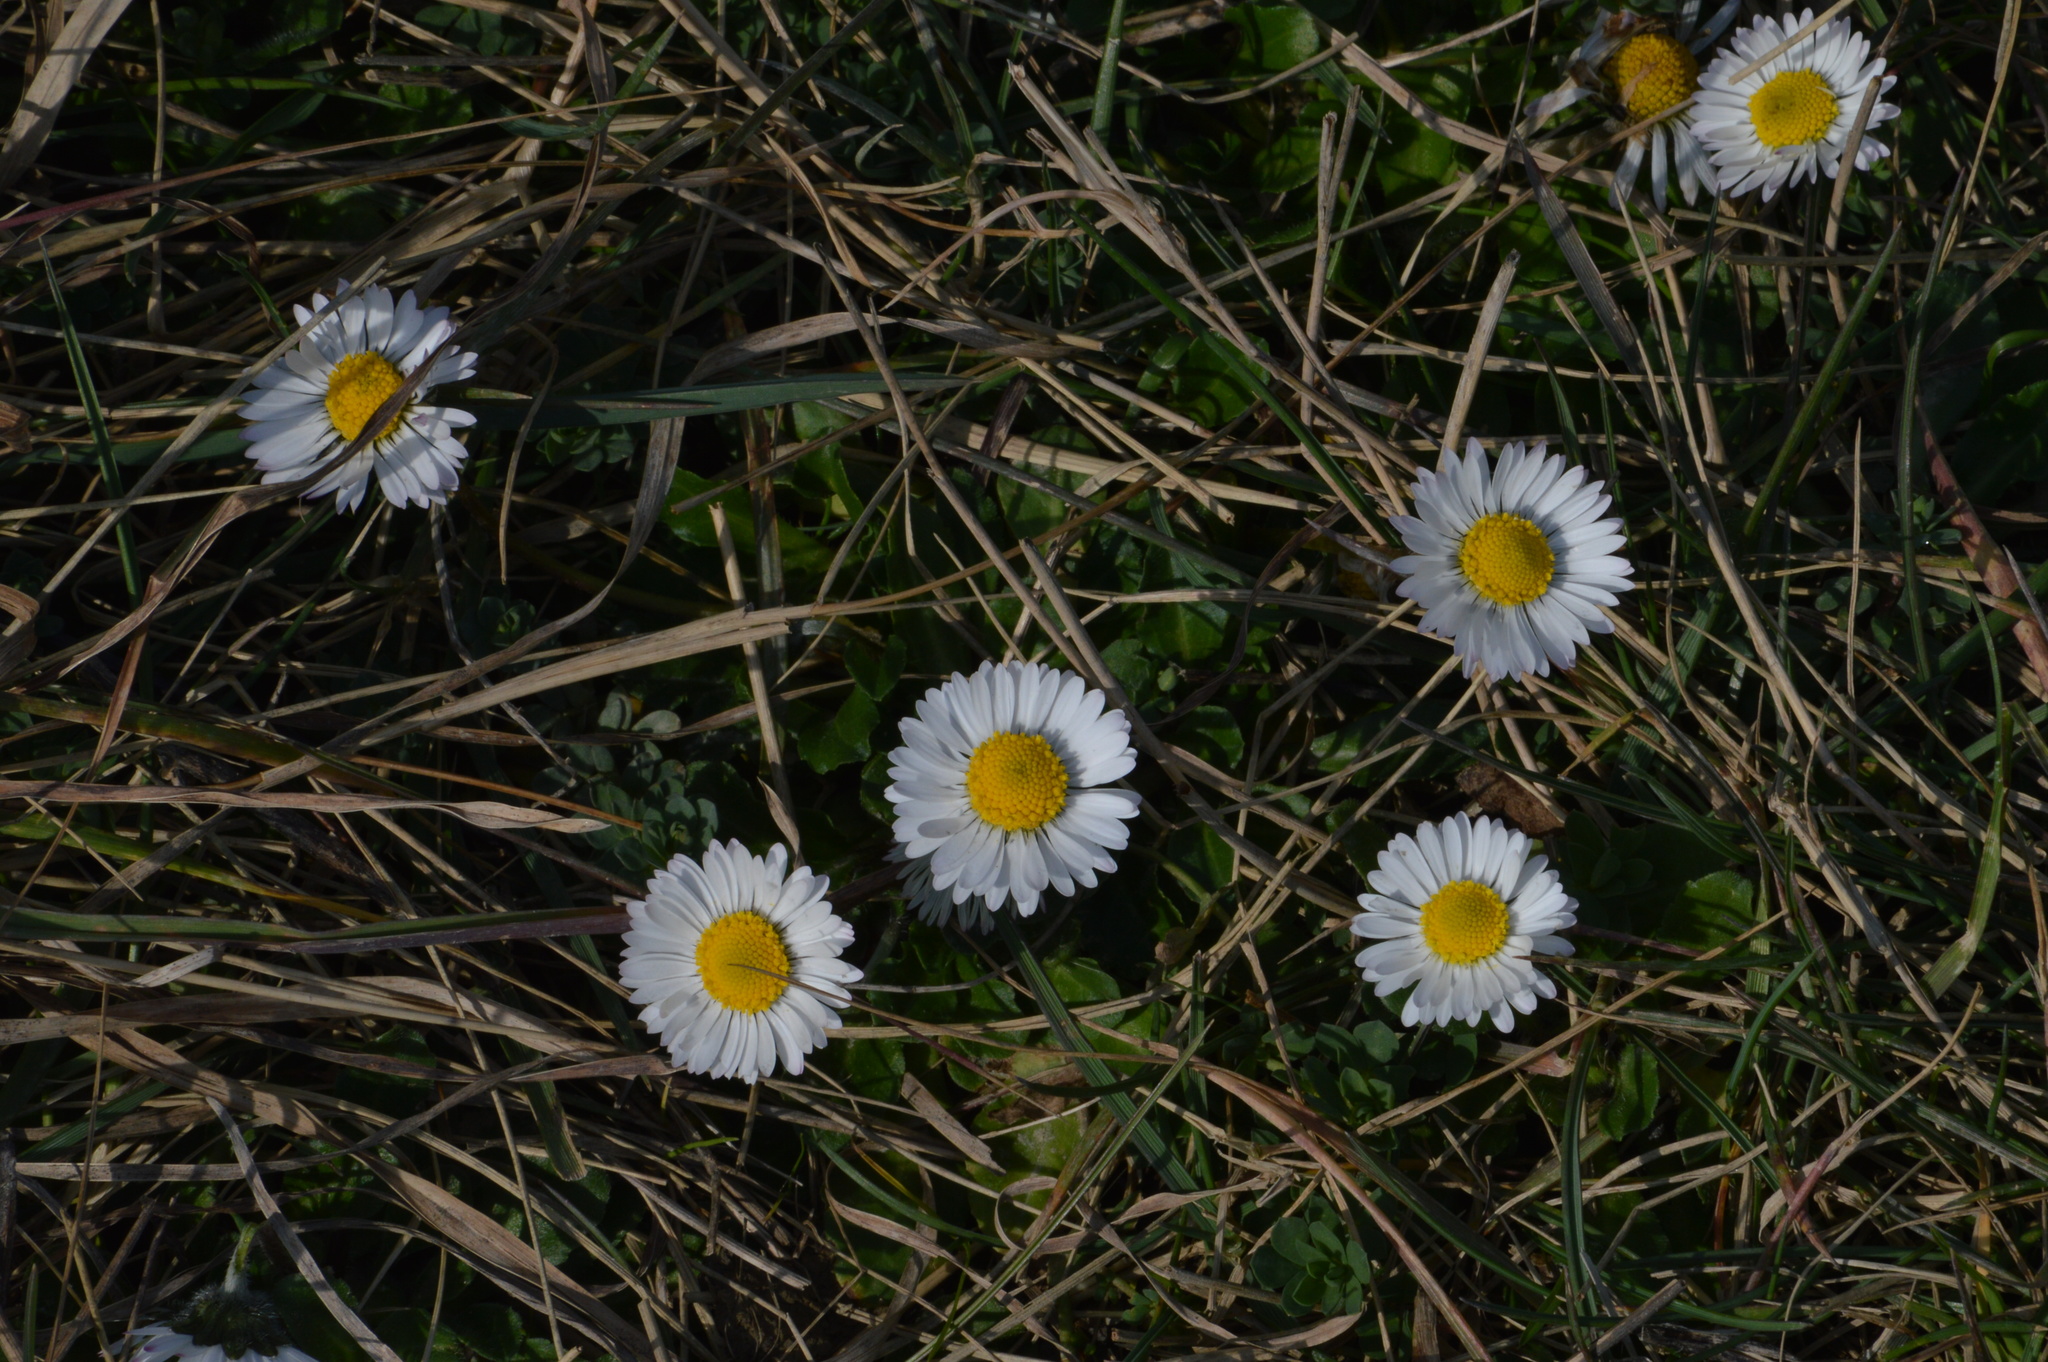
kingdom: Plantae
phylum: Tracheophyta
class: Magnoliopsida
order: Asterales
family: Asteraceae
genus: Bellis
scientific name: Bellis perennis
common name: Lawndaisy
